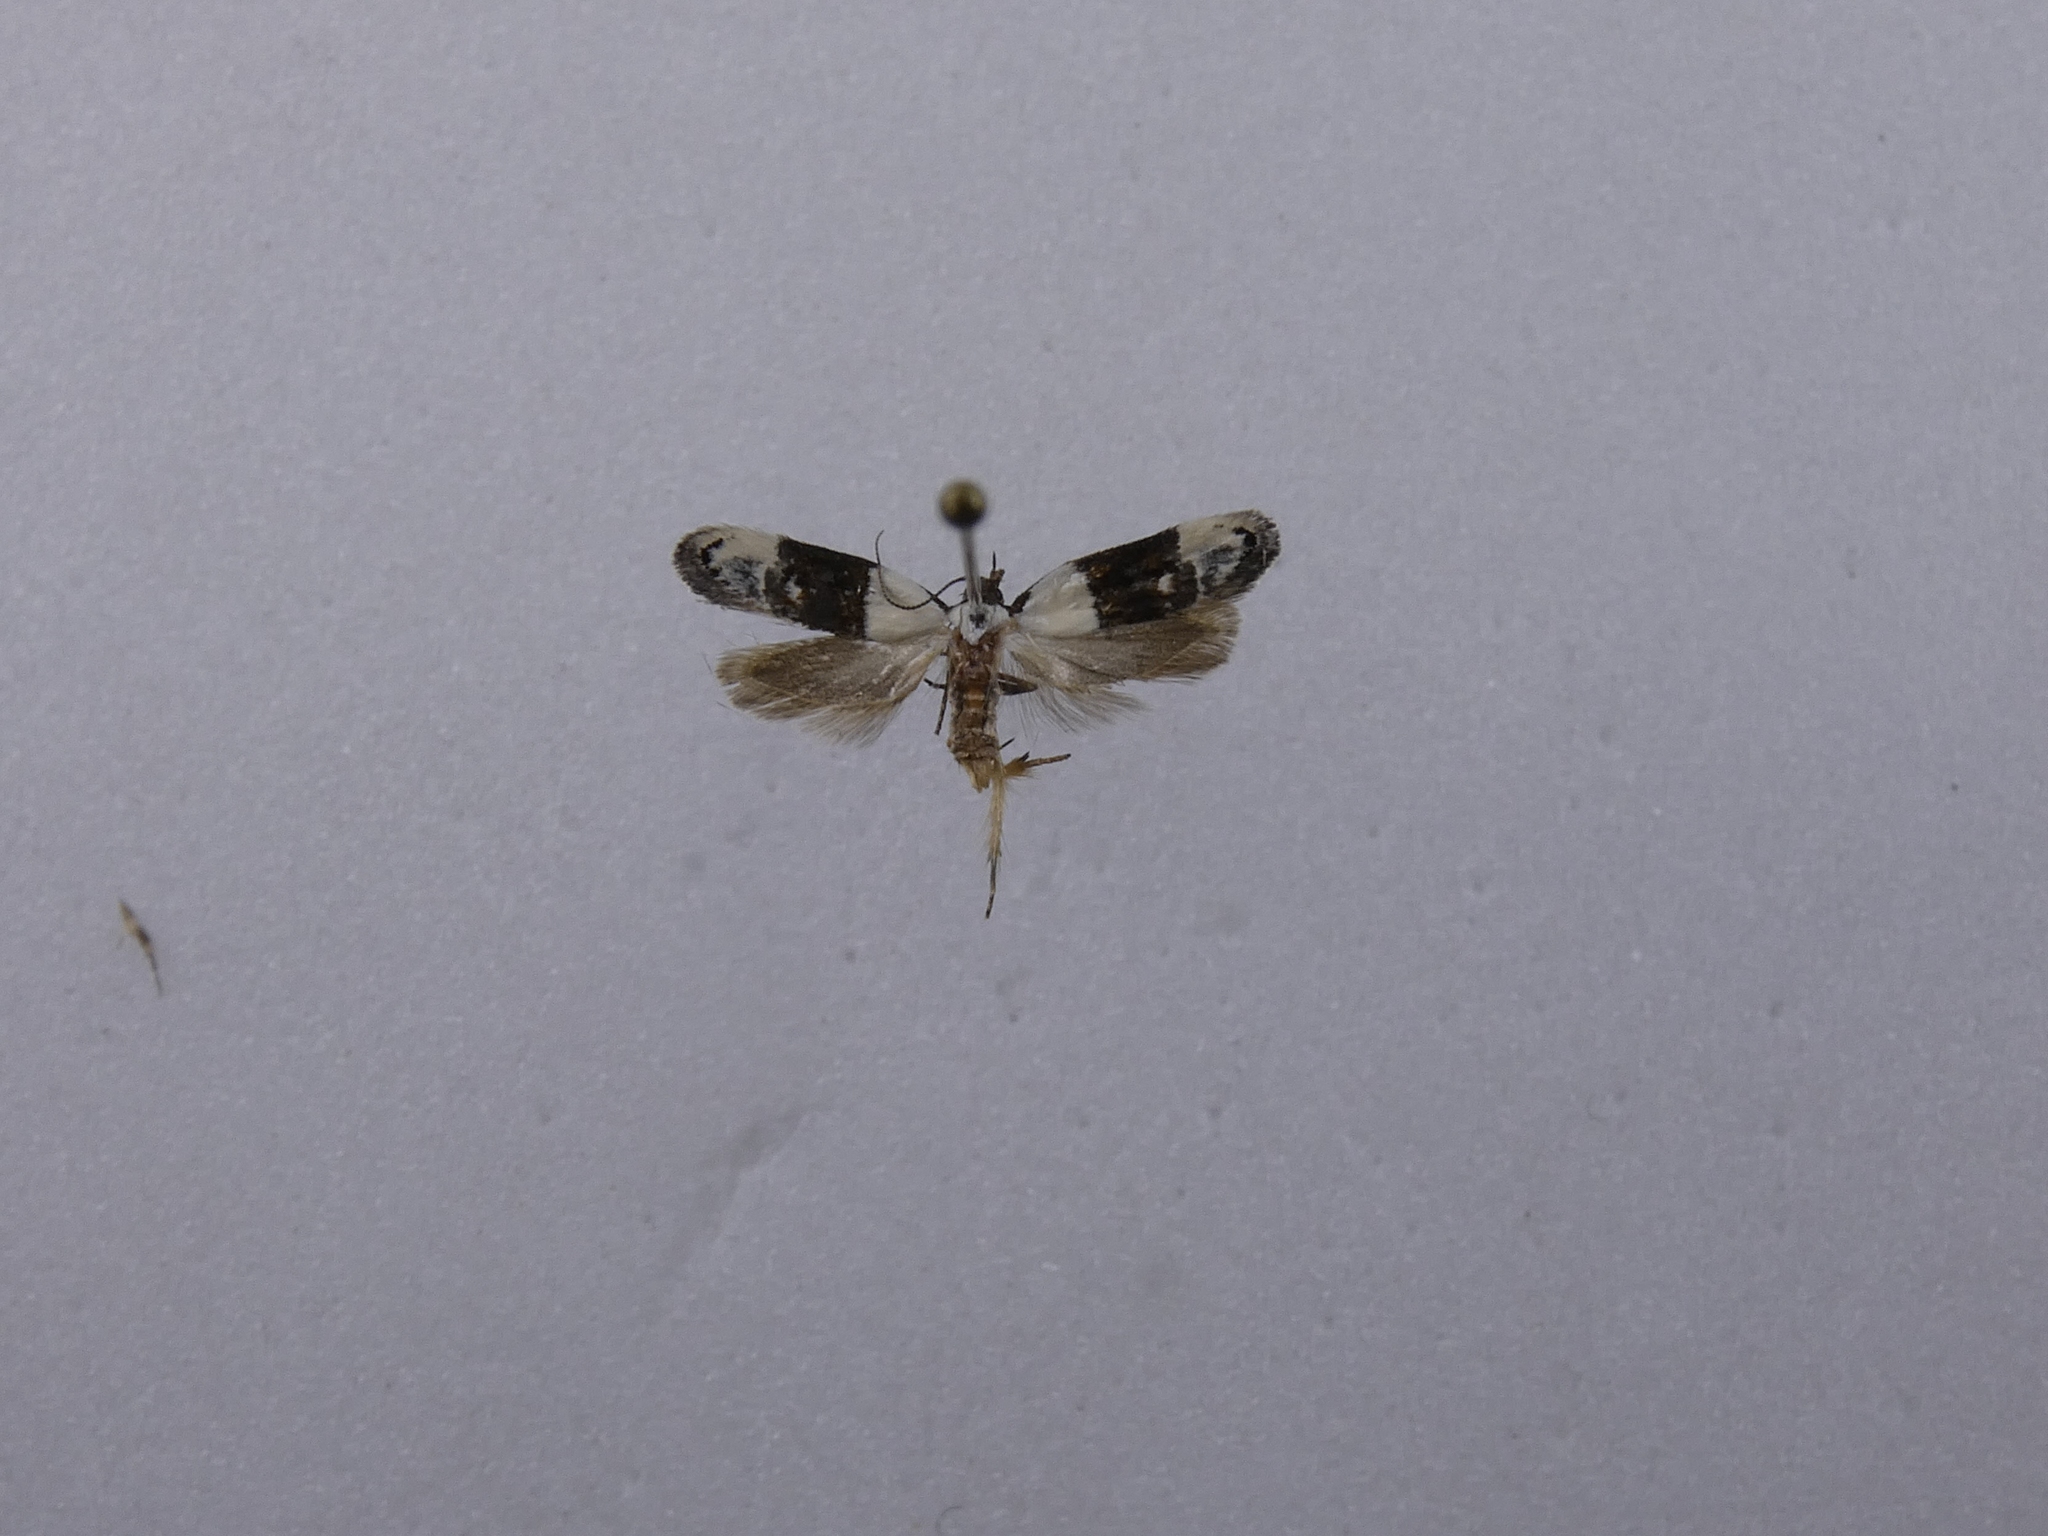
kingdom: Animalia
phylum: Arthropoda
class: Insecta
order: Lepidoptera
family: Oecophoridae
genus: Trachypepla
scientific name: Trachypepla amphileuca
